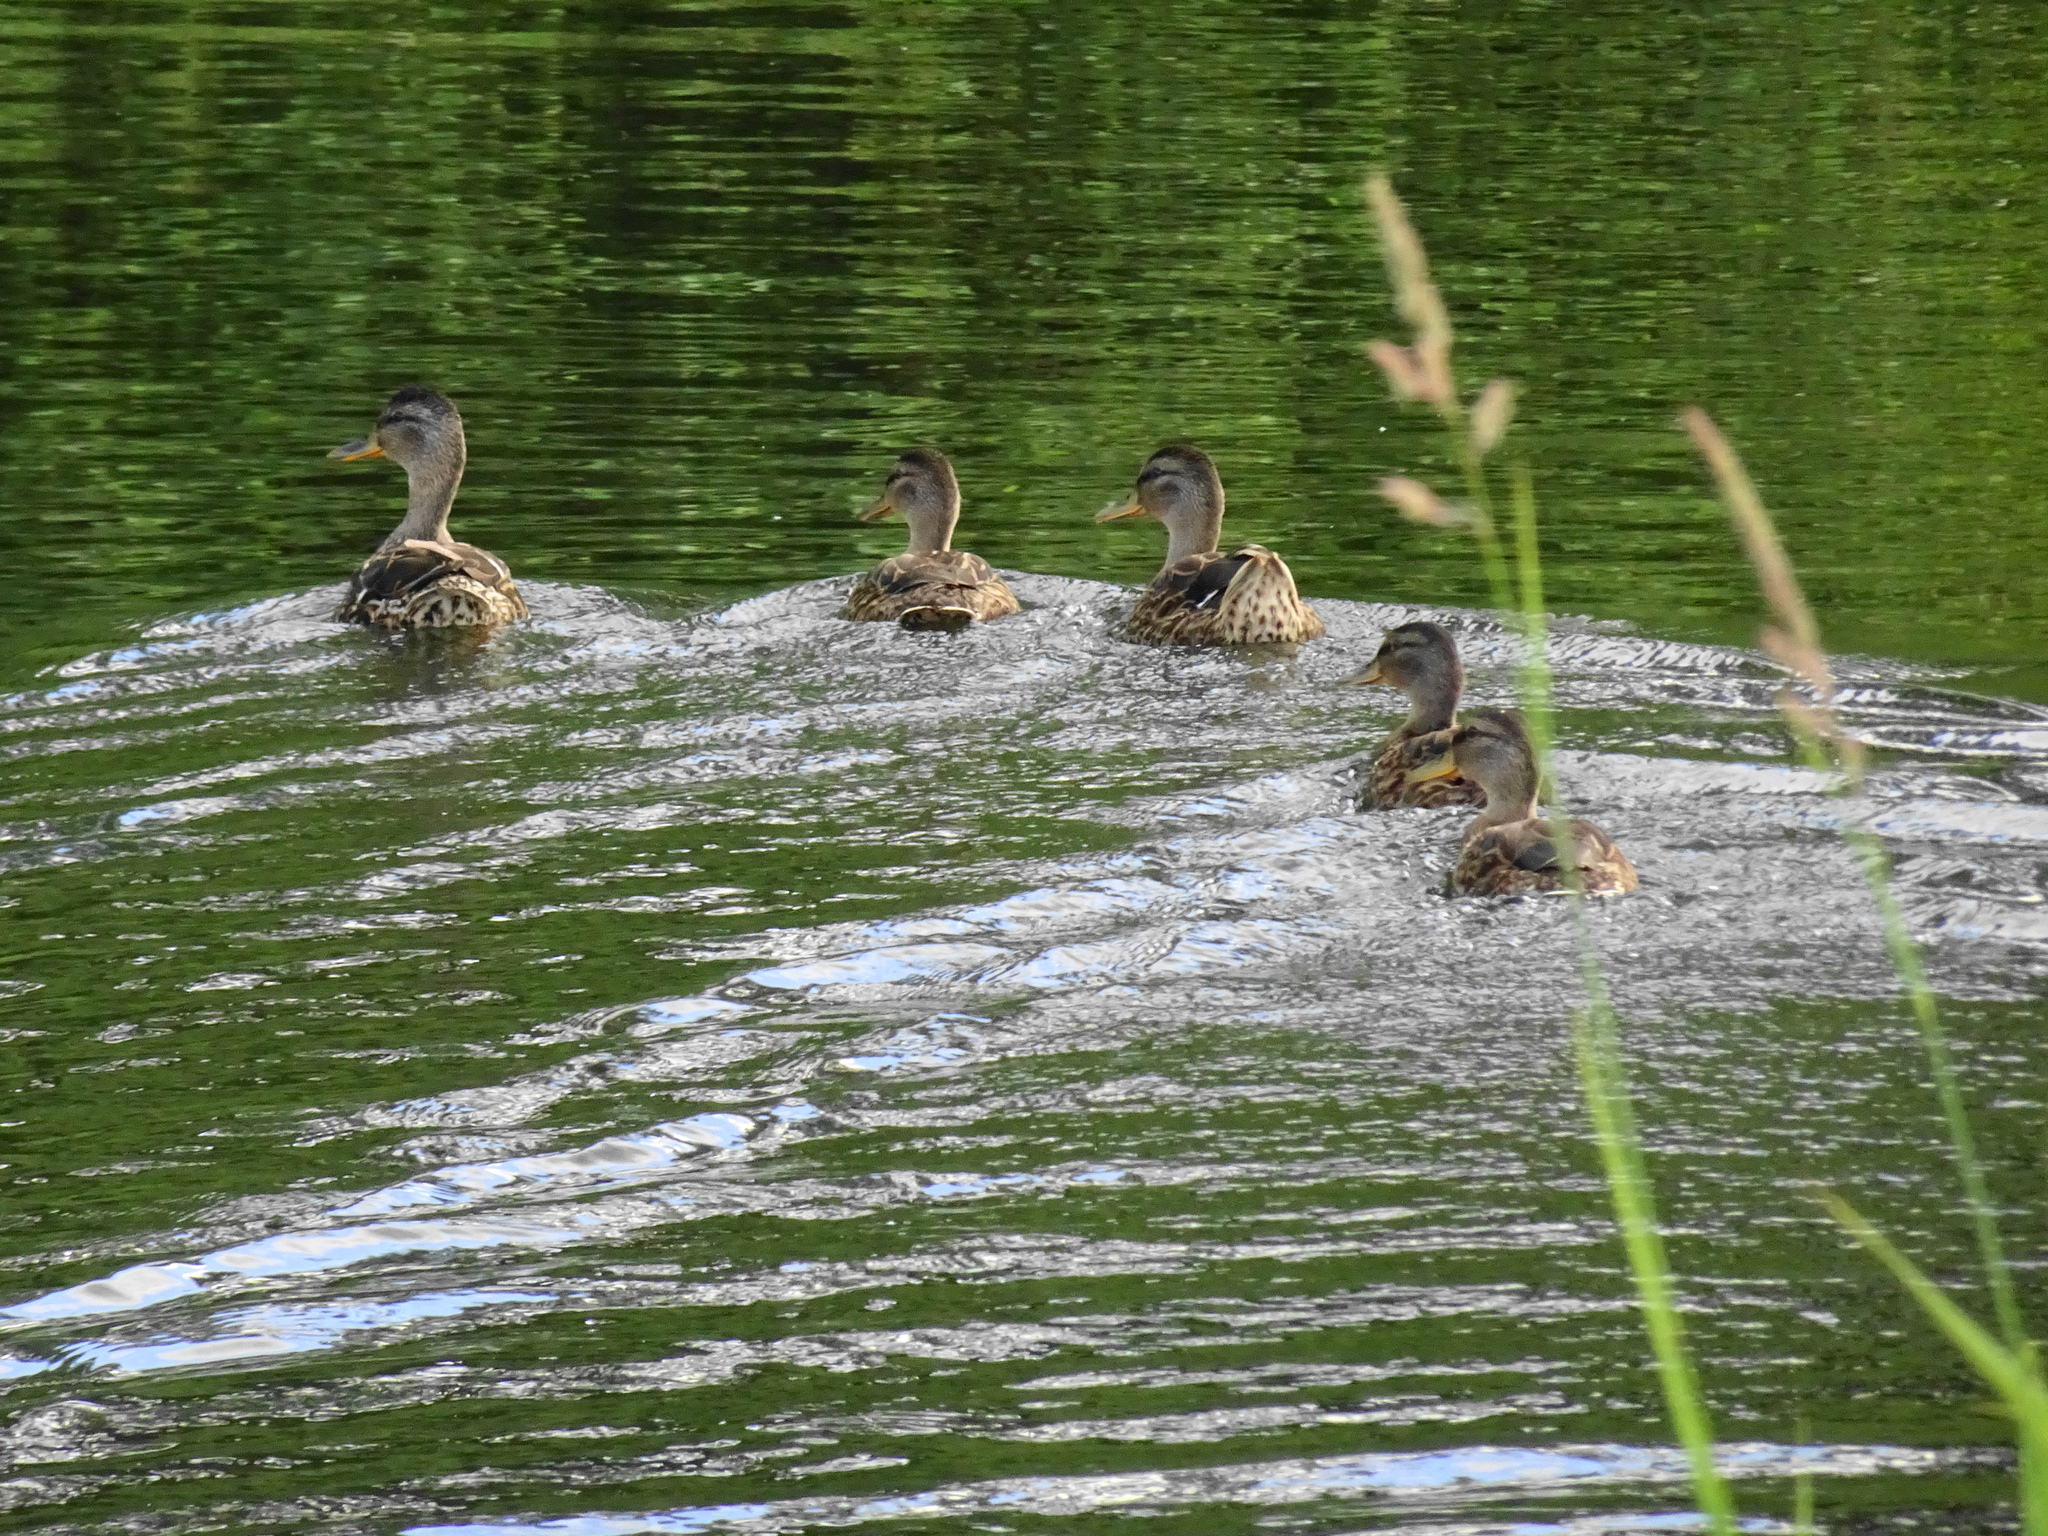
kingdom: Animalia
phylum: Chordata
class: Aves
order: Anseriformes
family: Anatidae
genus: Anas
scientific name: Anas platyrhynchos
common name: Mallard
